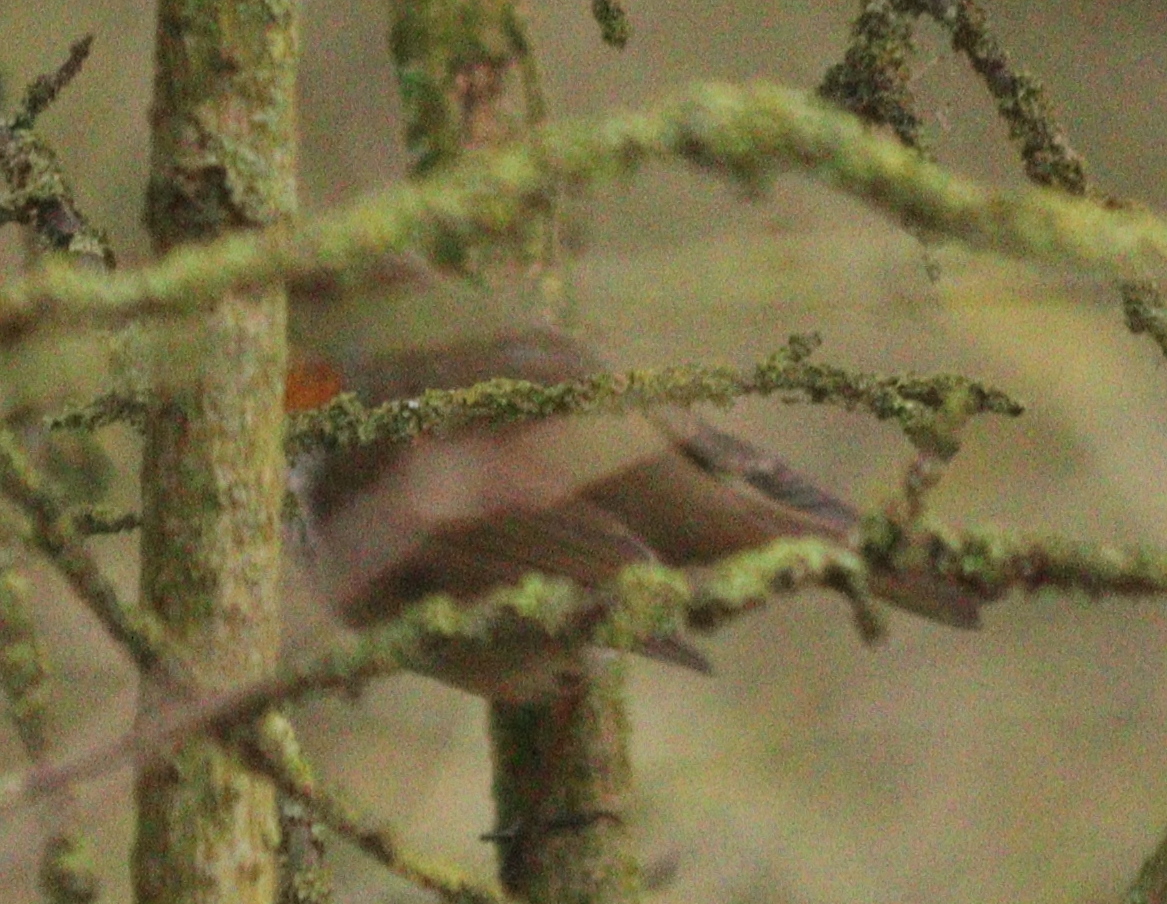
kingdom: Animalia
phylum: Chordata
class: Aves
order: Passeriformes
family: Muscicapidae
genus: Erithacus
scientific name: Erithacus rubecula
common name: European robin
